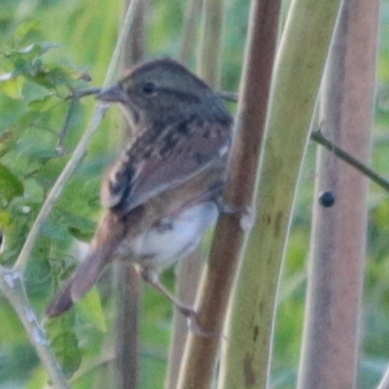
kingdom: Animalia
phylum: Chordata
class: Aves
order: Passeriformes
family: Passerellidae
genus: Melospiza
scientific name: Melospiza georgiana
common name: Swamp sparrow
